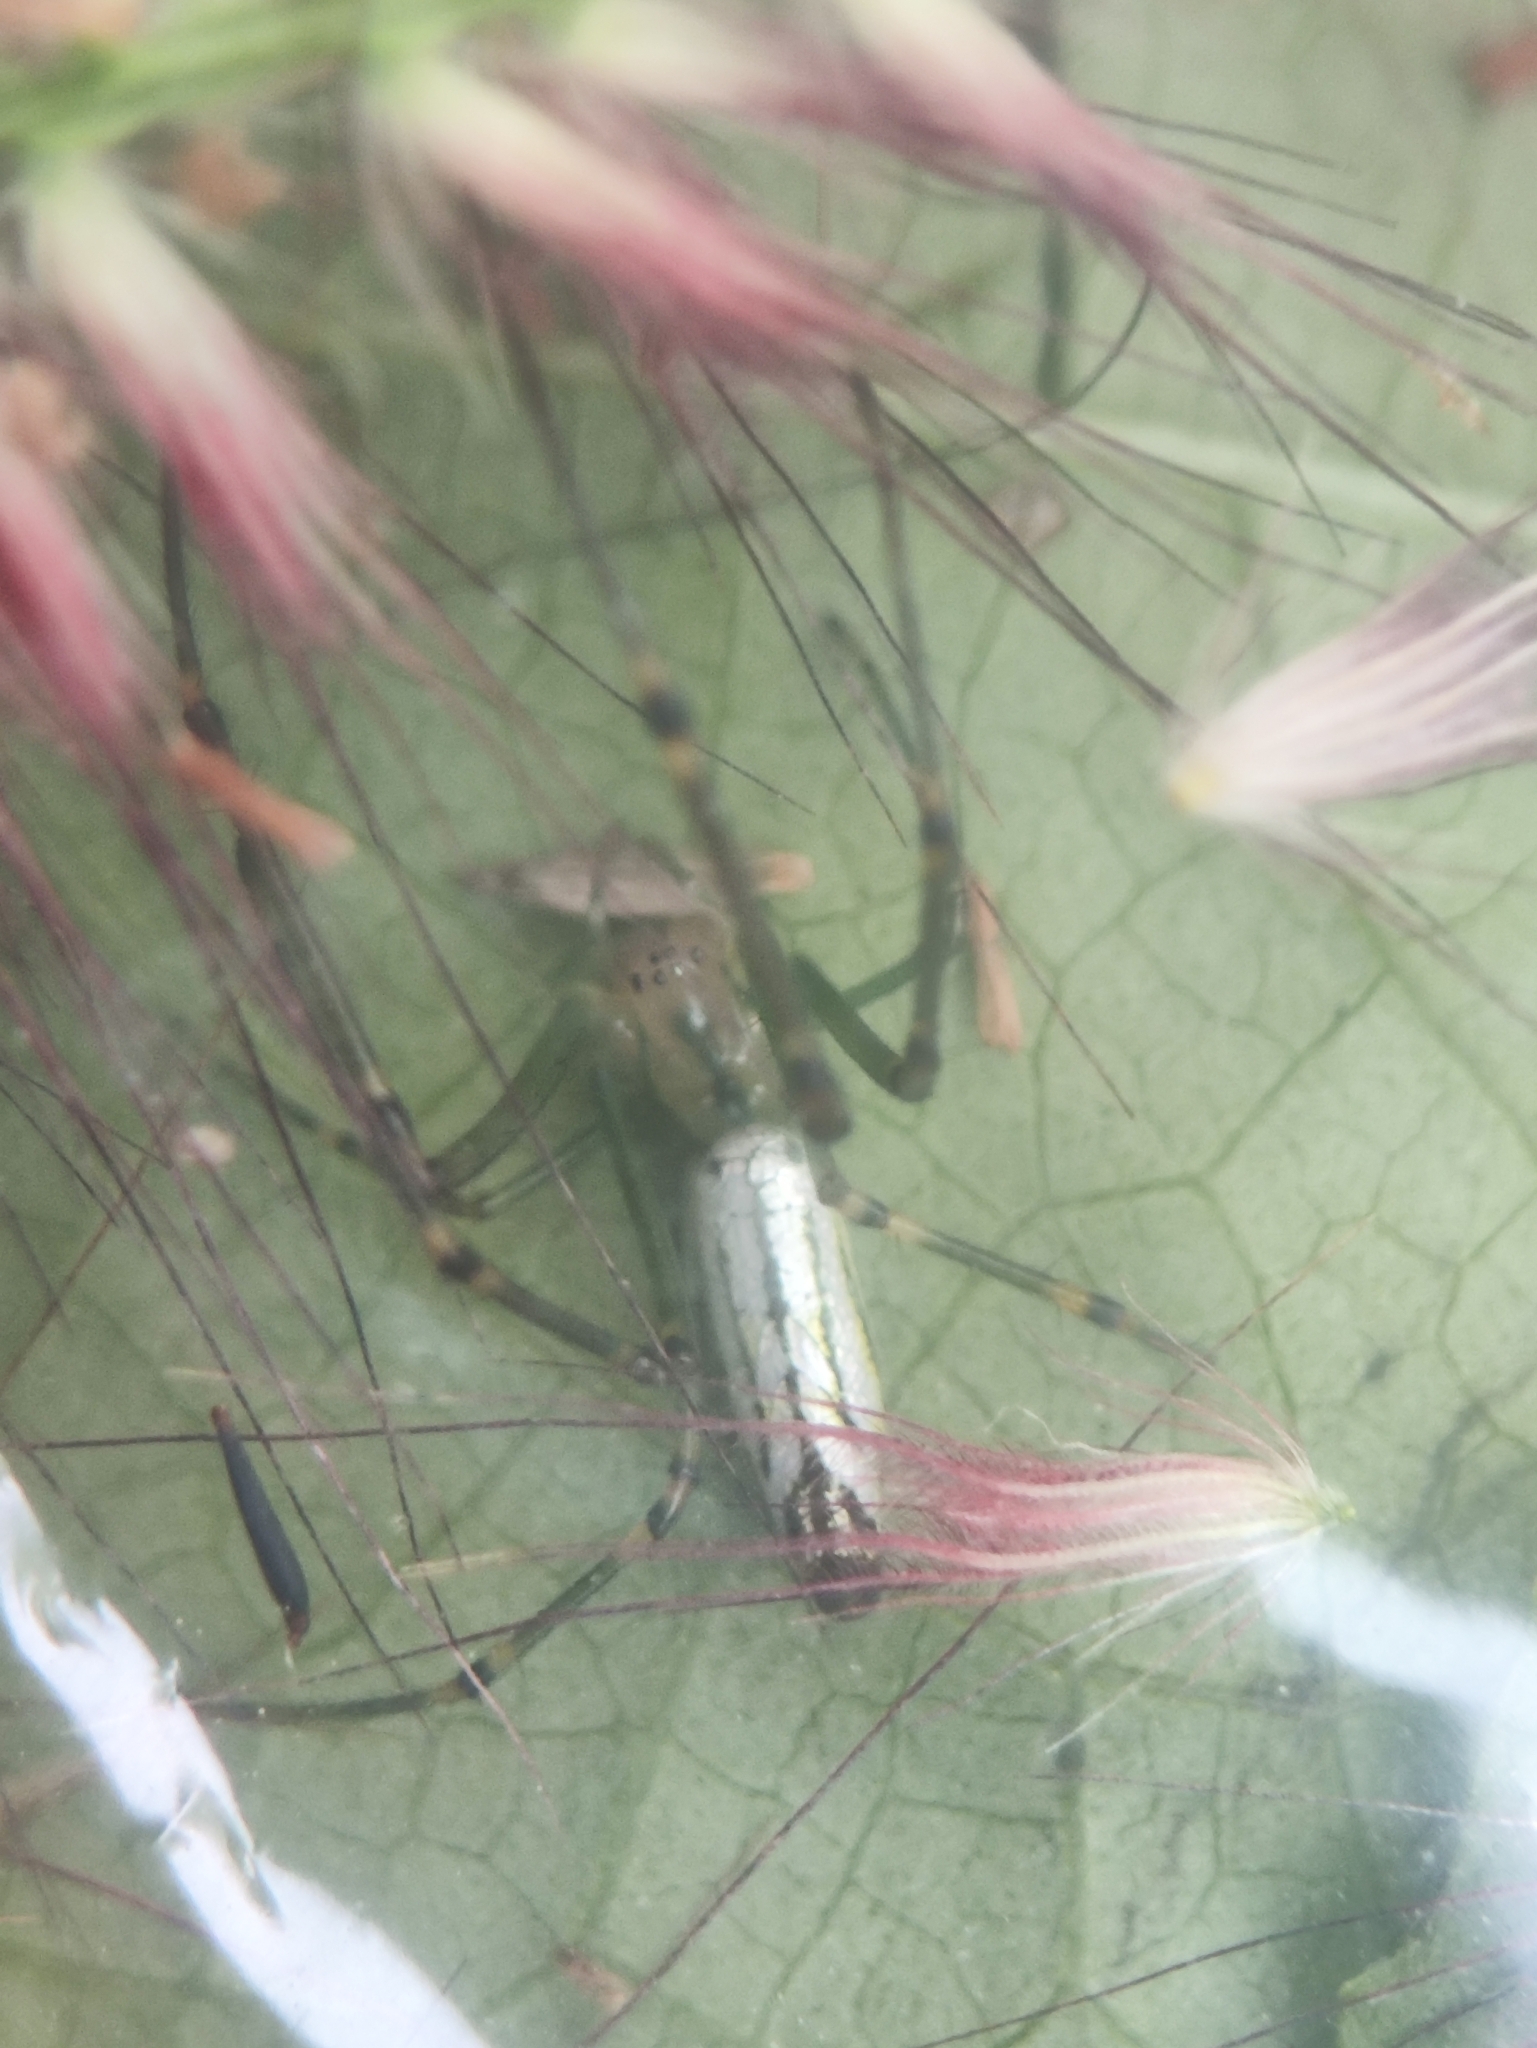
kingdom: Animalia
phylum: Arthropoda
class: Arachnida
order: Araneae
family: Tetragnathidae
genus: Leucauge
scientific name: Leucauge decorata
